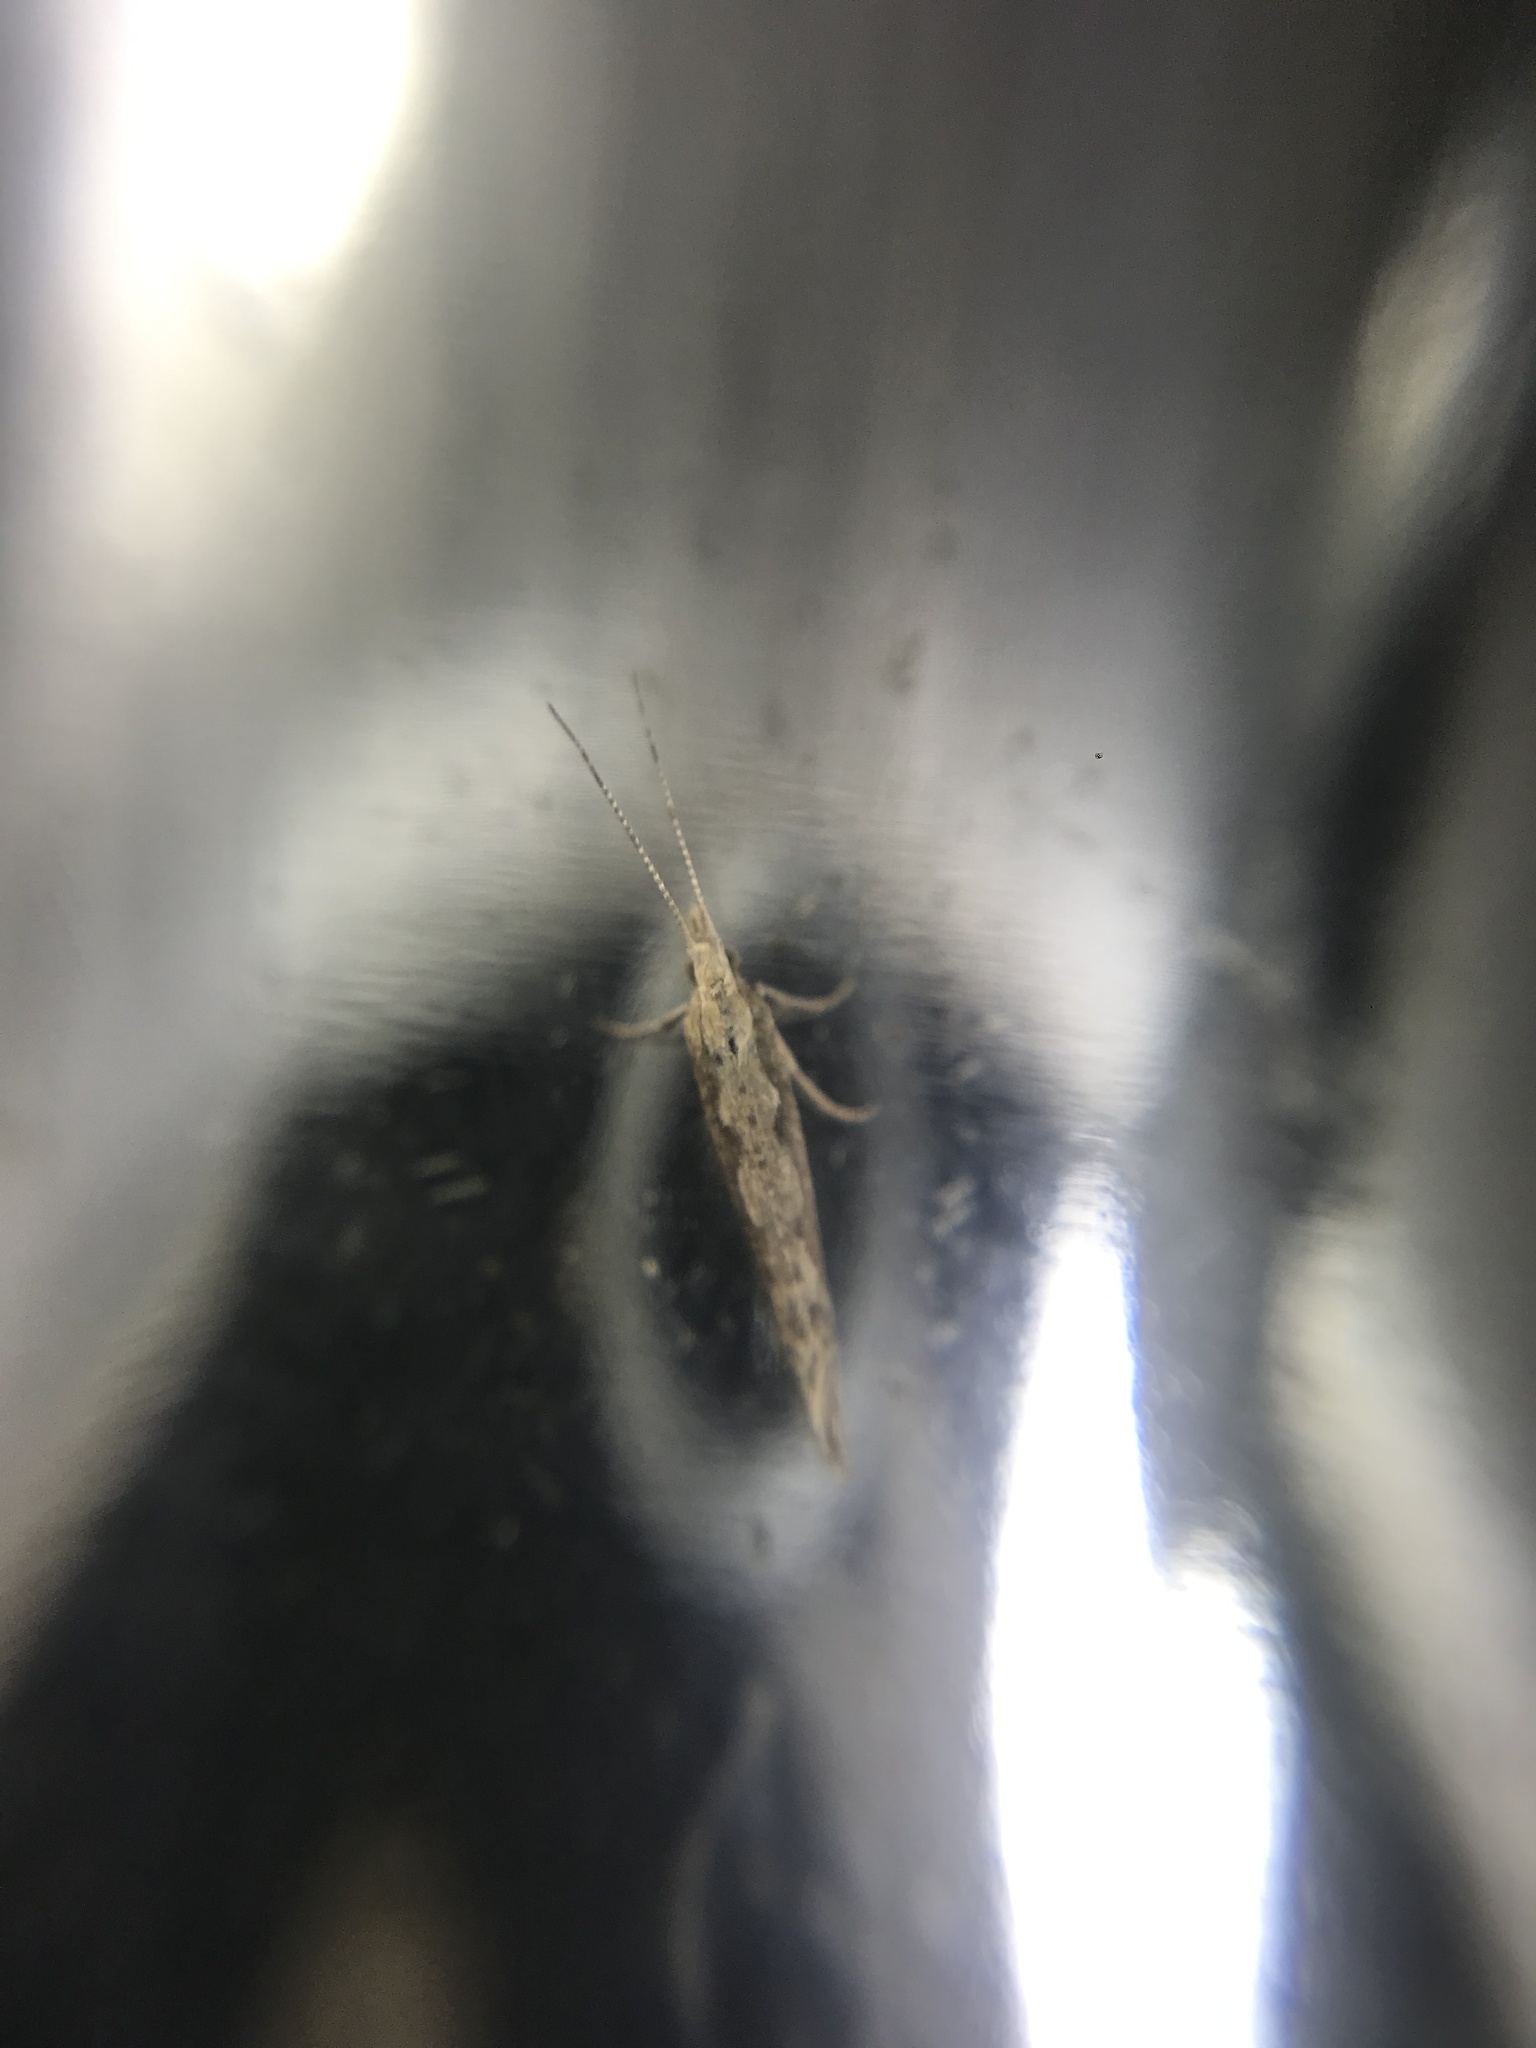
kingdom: Animalia
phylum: Arthropoda
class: Insecta
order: Lepidoptera
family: Plutellidae
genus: Plutella
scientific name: Plutella xylostella
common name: Diamond-back moth
